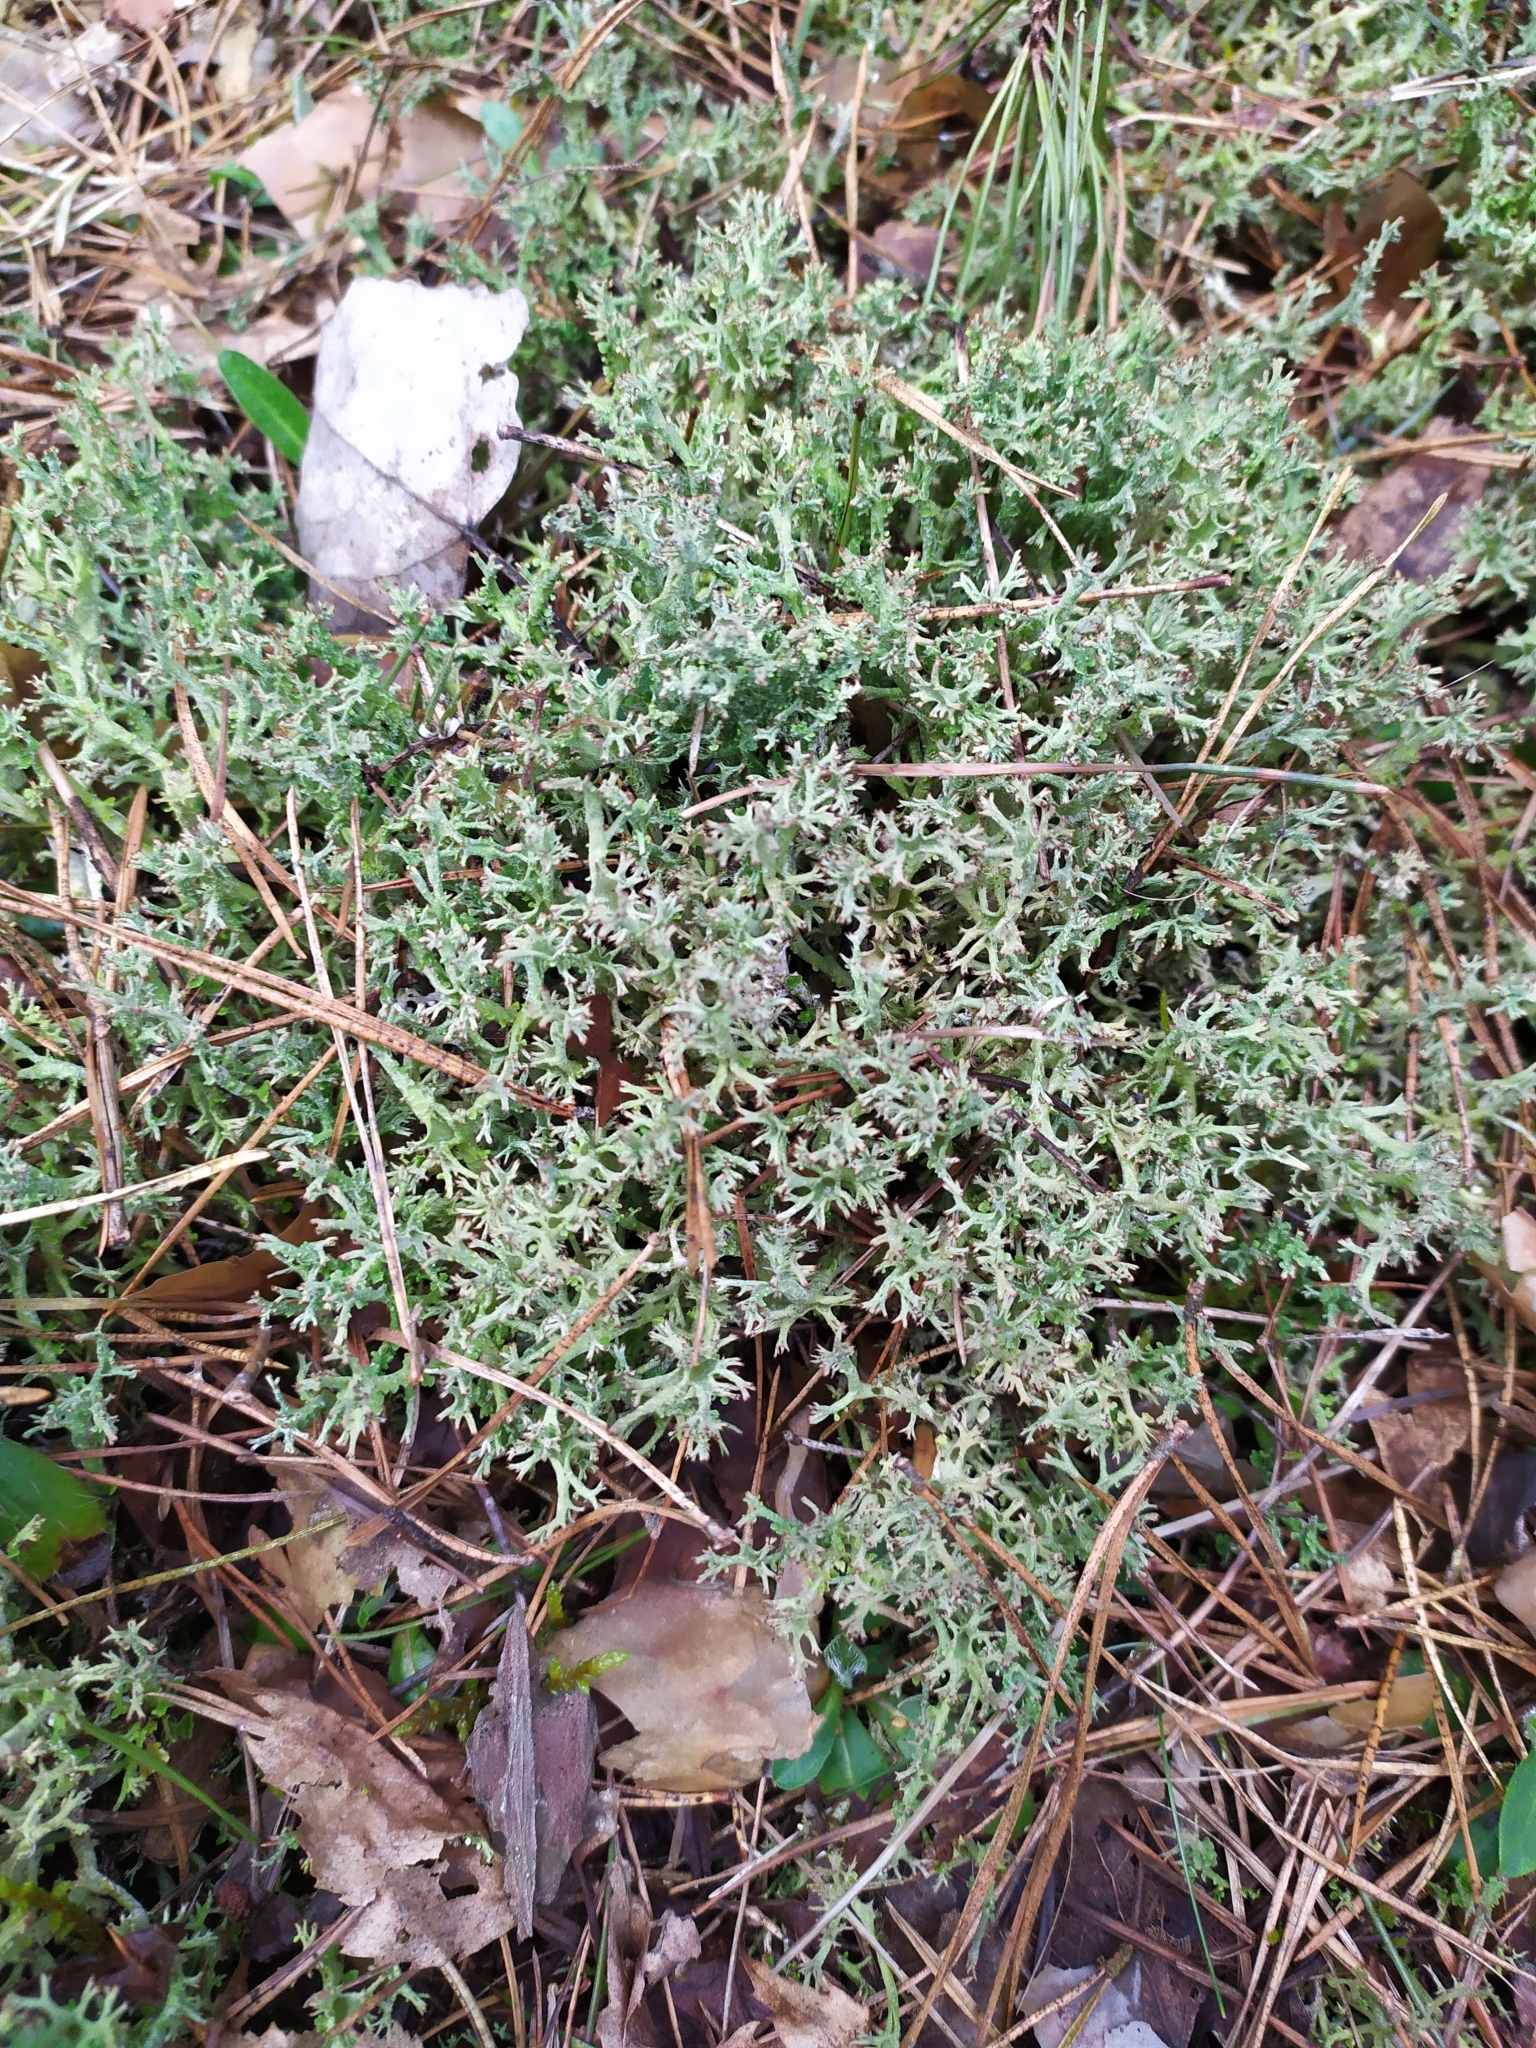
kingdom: Fungi
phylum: Ascomycota
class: Lecanoromycetes
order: Lecanorales
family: Cladoniaceae
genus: Cladonia
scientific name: Cladonia furcata
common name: Many-forked cladonia
